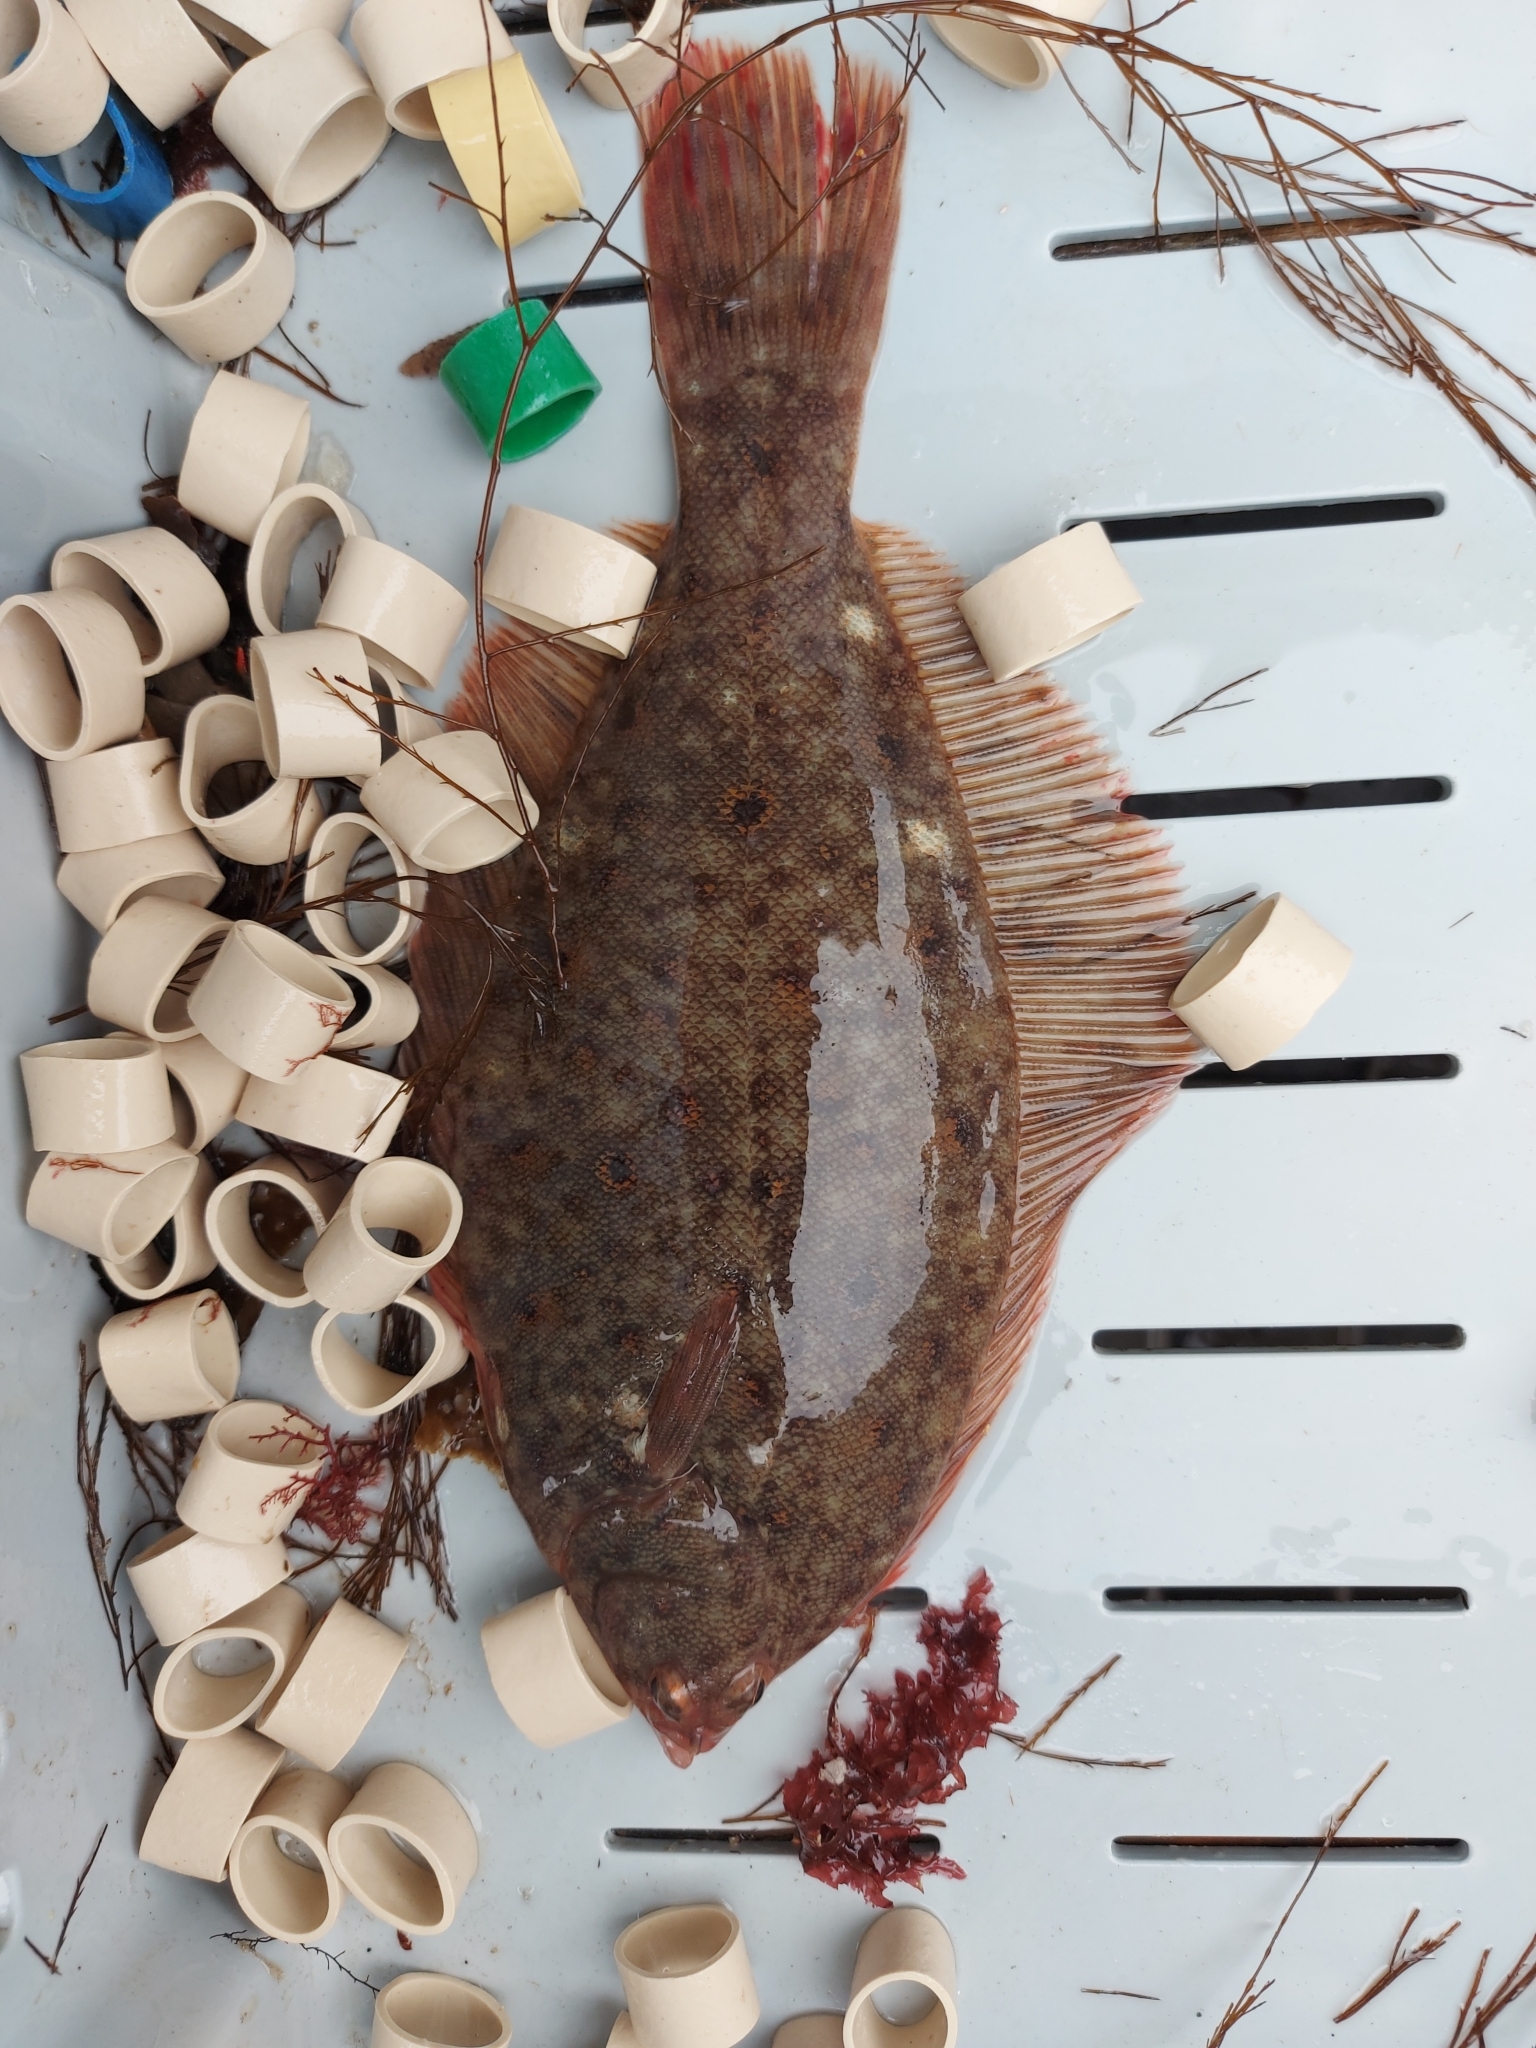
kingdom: Animalia
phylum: Chordata
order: Pleuronectiformes
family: Pleuronectidae
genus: Pseudopleuronectes
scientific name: Pseudopleuronectes americanus
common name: Black backs
